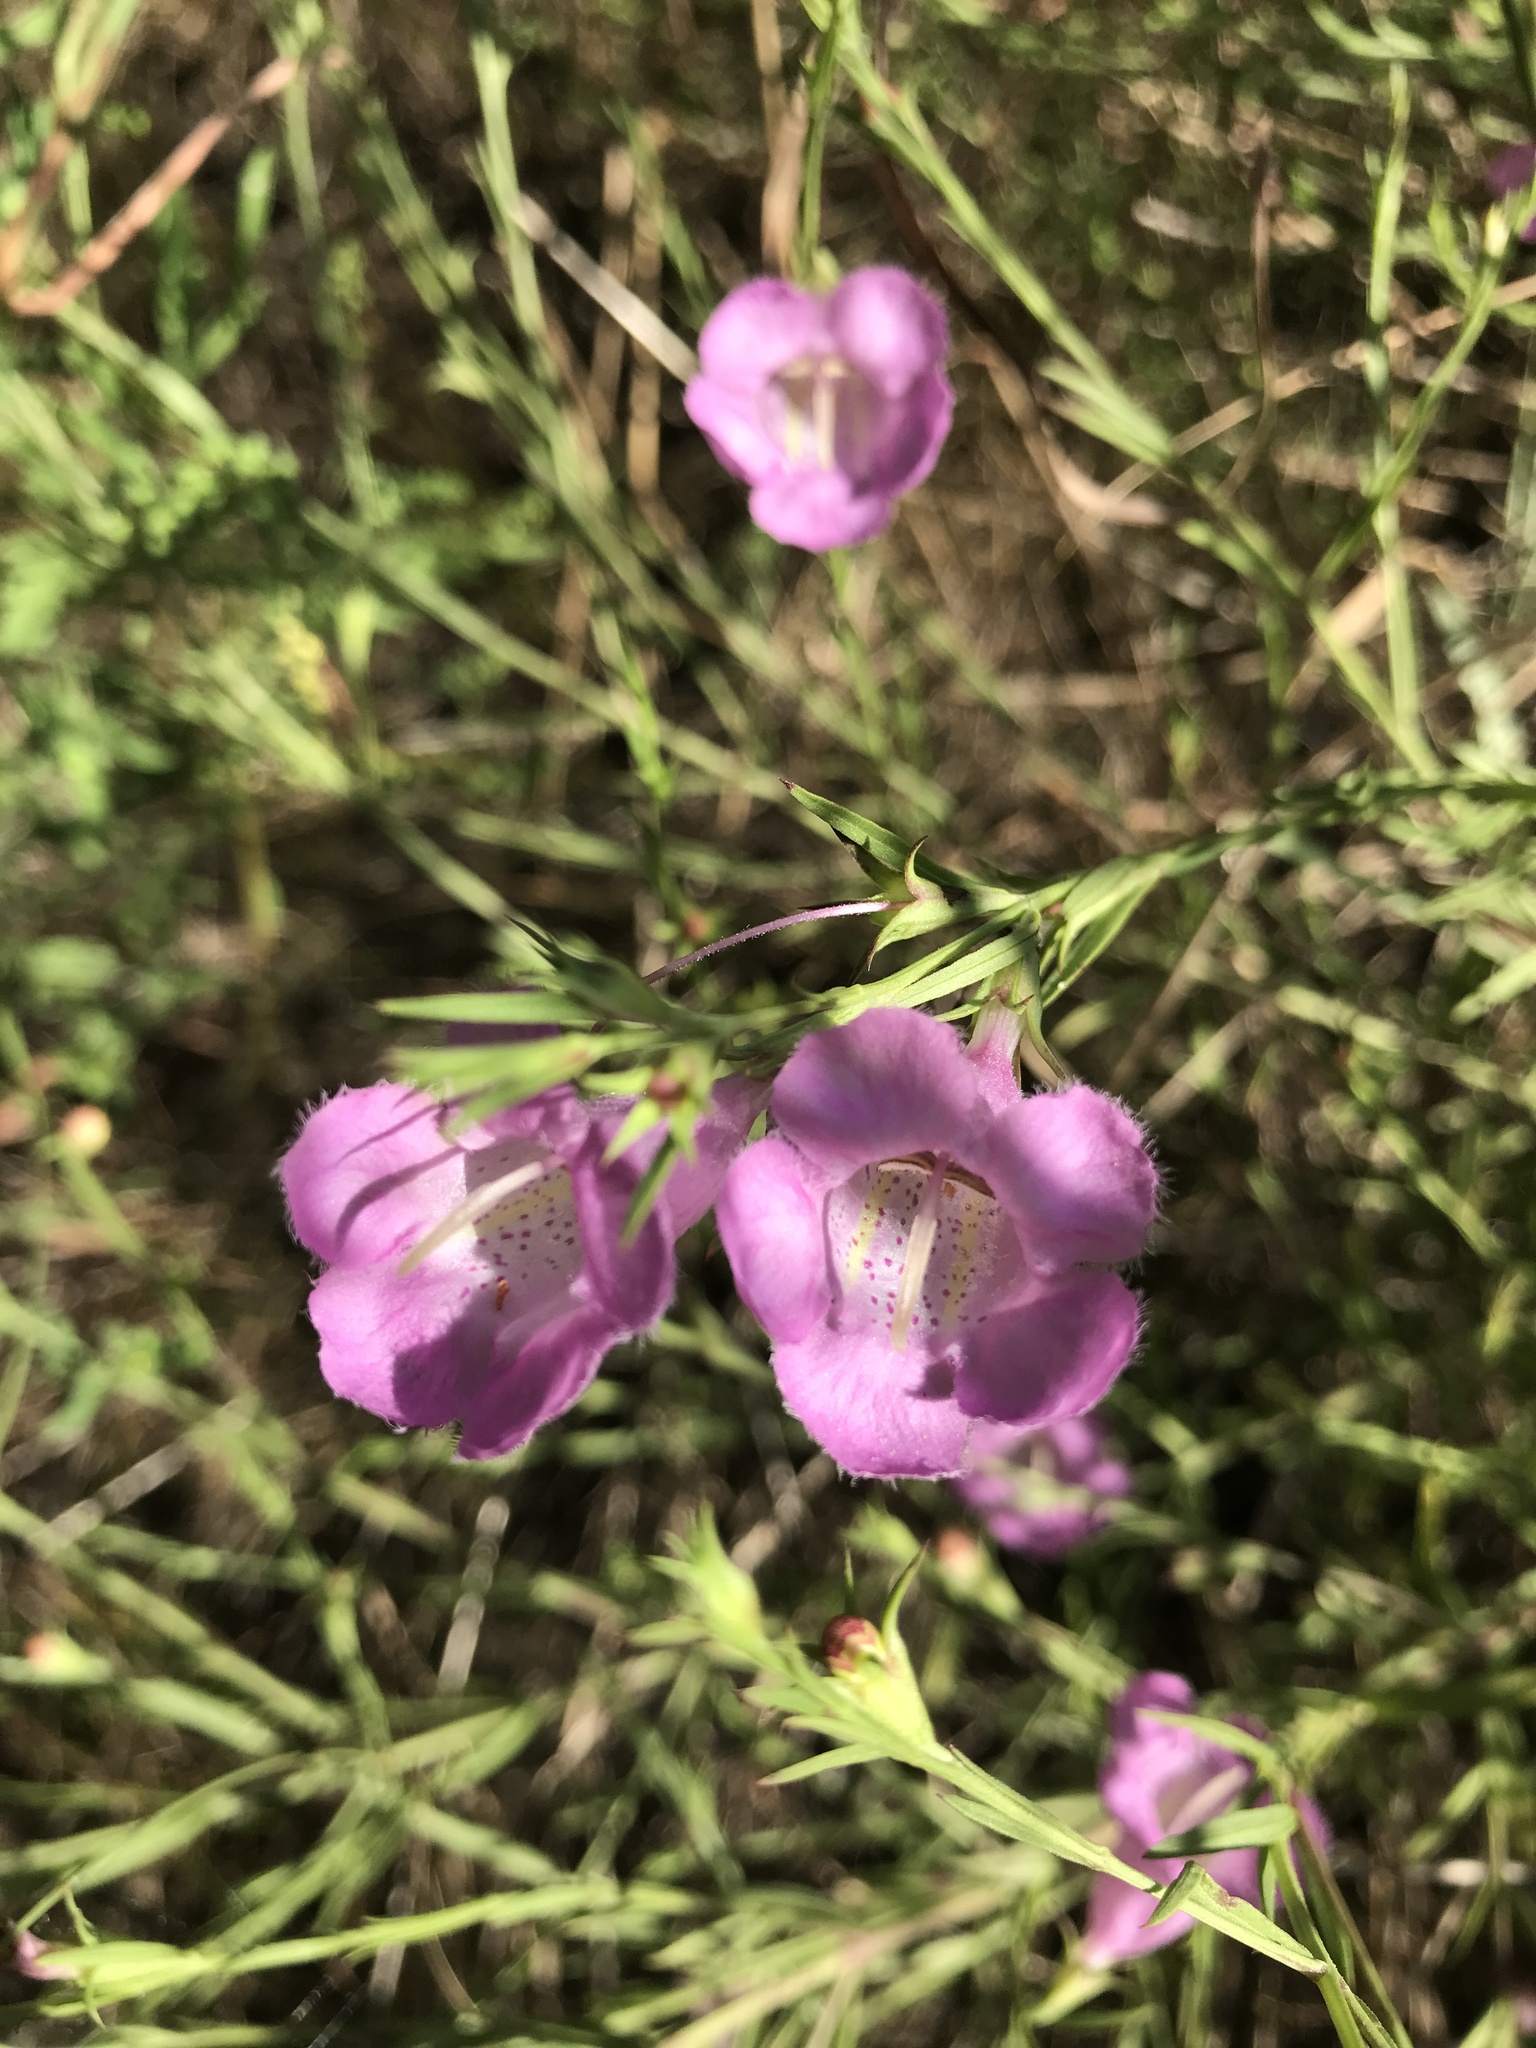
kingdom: Plantae
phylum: Tracheophyta
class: Magnoliopsida
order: Lamiales
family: Orobanchaceae
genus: Agalinis
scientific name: Agalinis heterophylla
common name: Prairie agalinis
